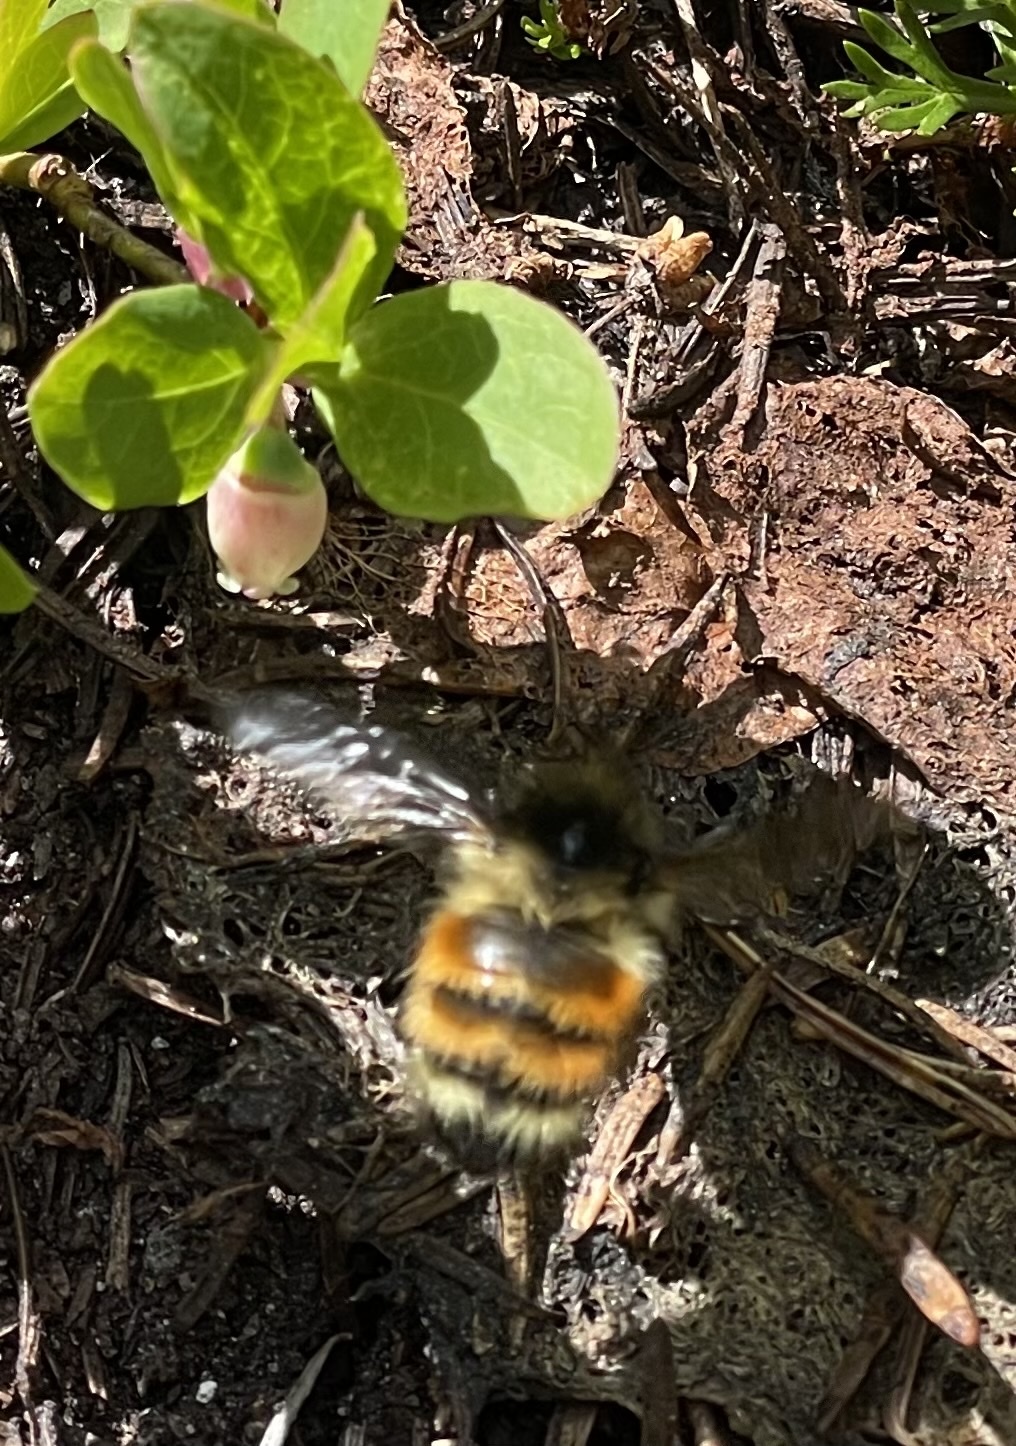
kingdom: Animalia
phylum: Arthropoda
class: Insecta
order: Hymenoptera
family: Apidae
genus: Bombus
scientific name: Bombus melanopygus
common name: Black tail bumble bee
